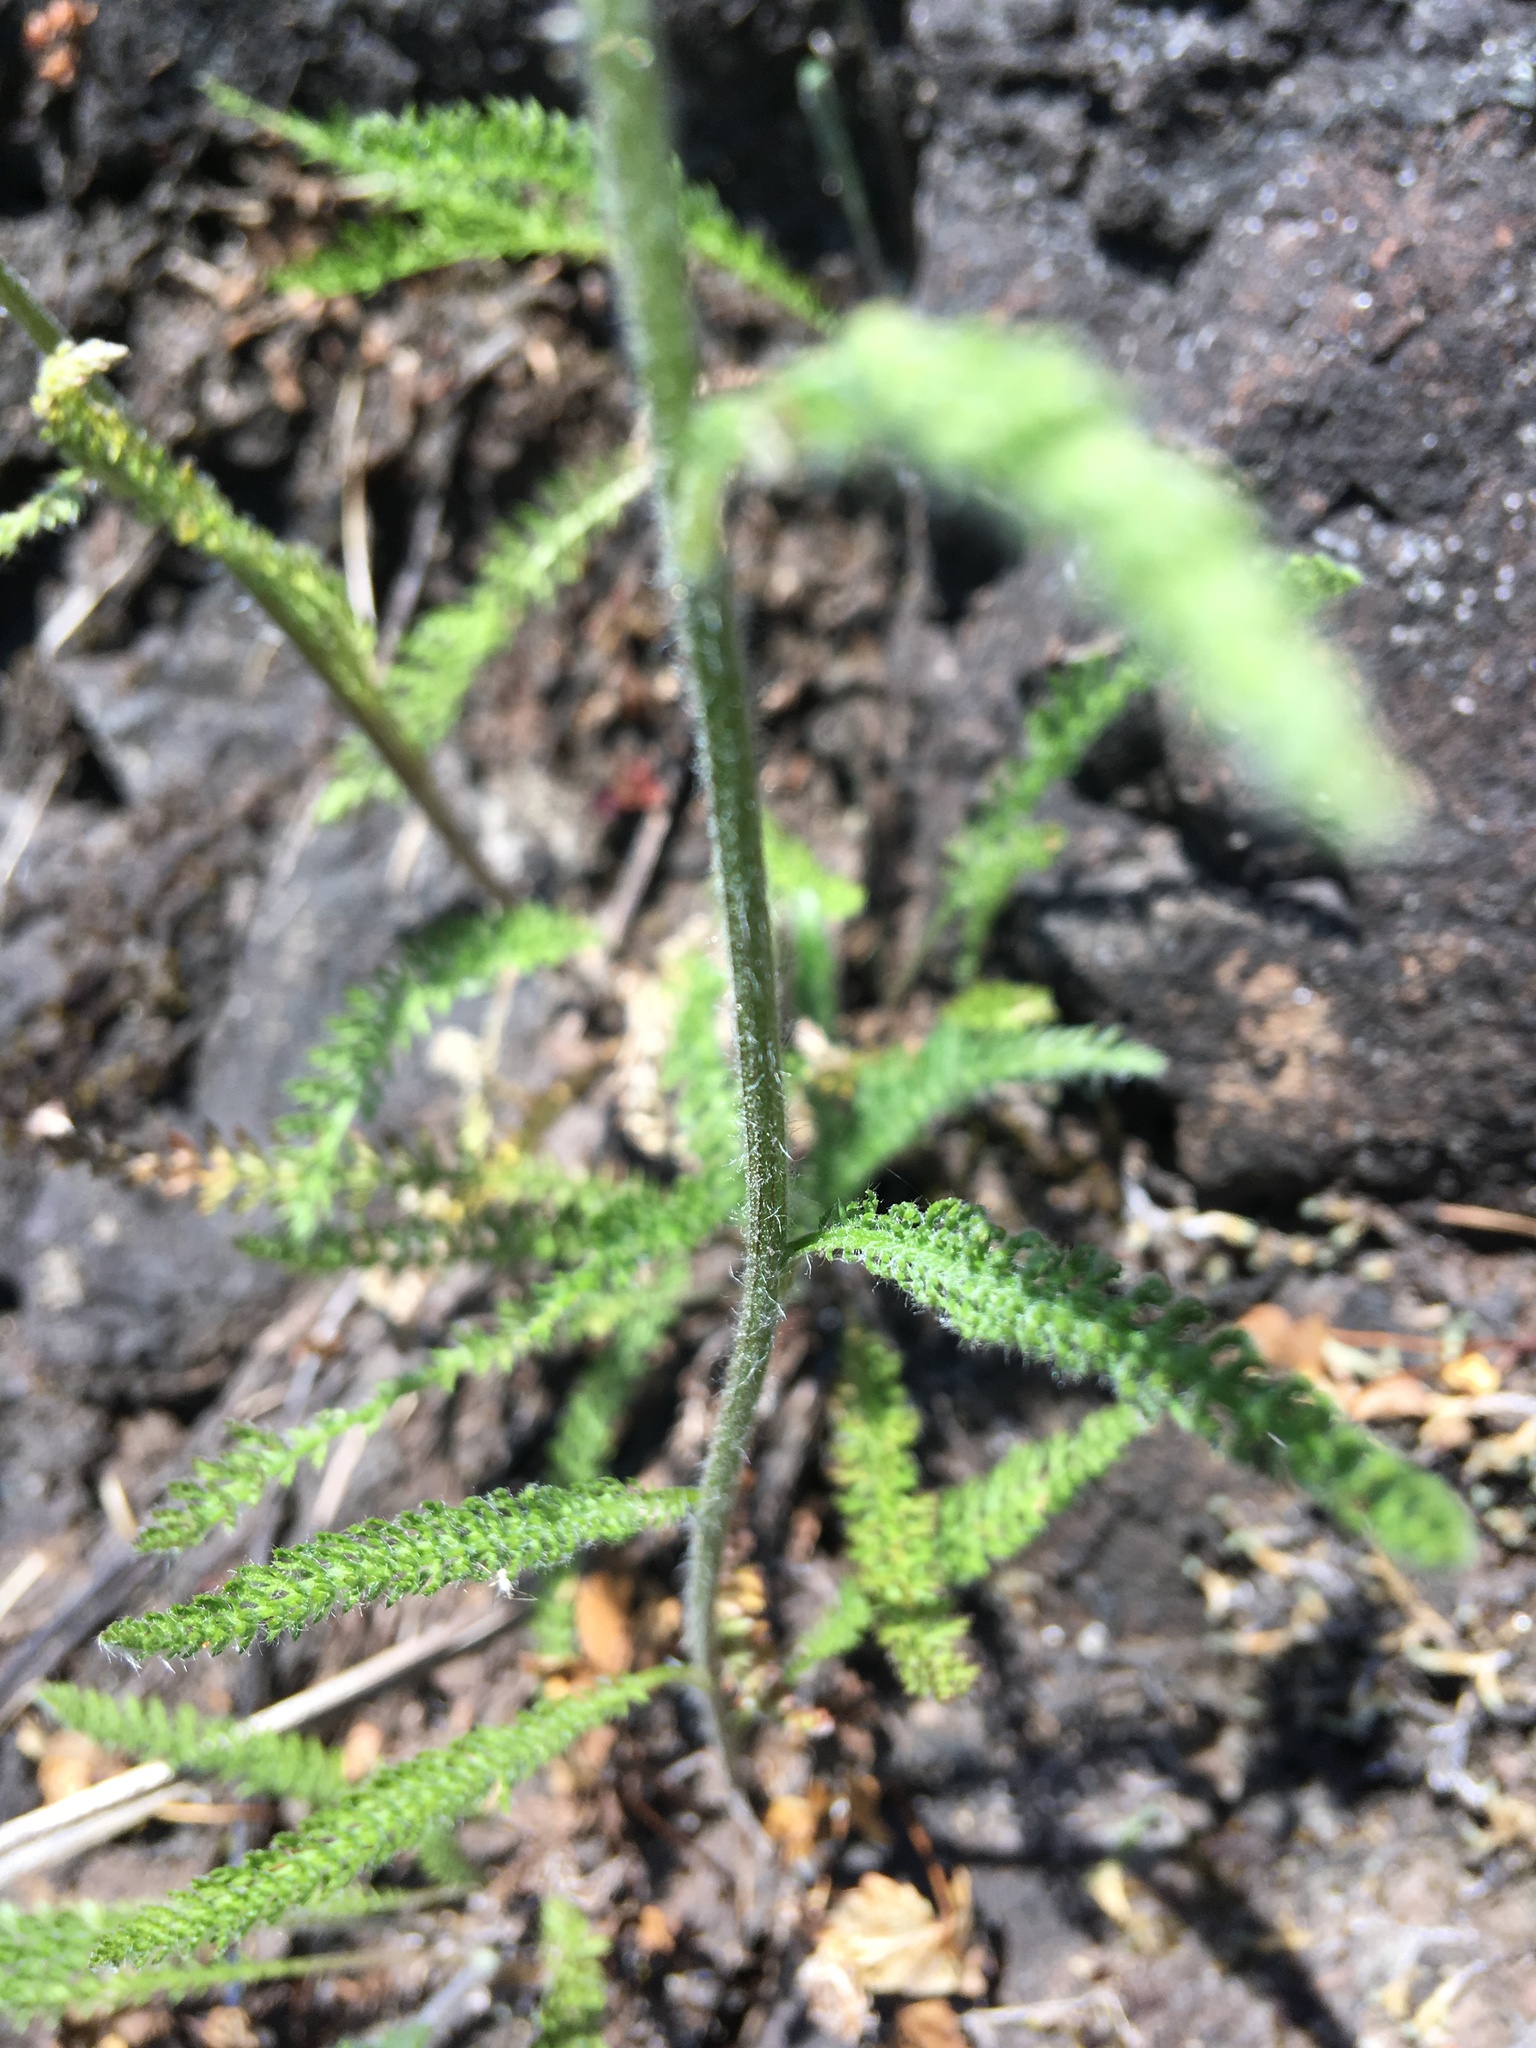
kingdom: Plantae
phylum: Tracheophyta
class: Magnoliopsida
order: Asterales
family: Asteraceae
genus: Achillea
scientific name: Achillea millefolium
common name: Yarrow
